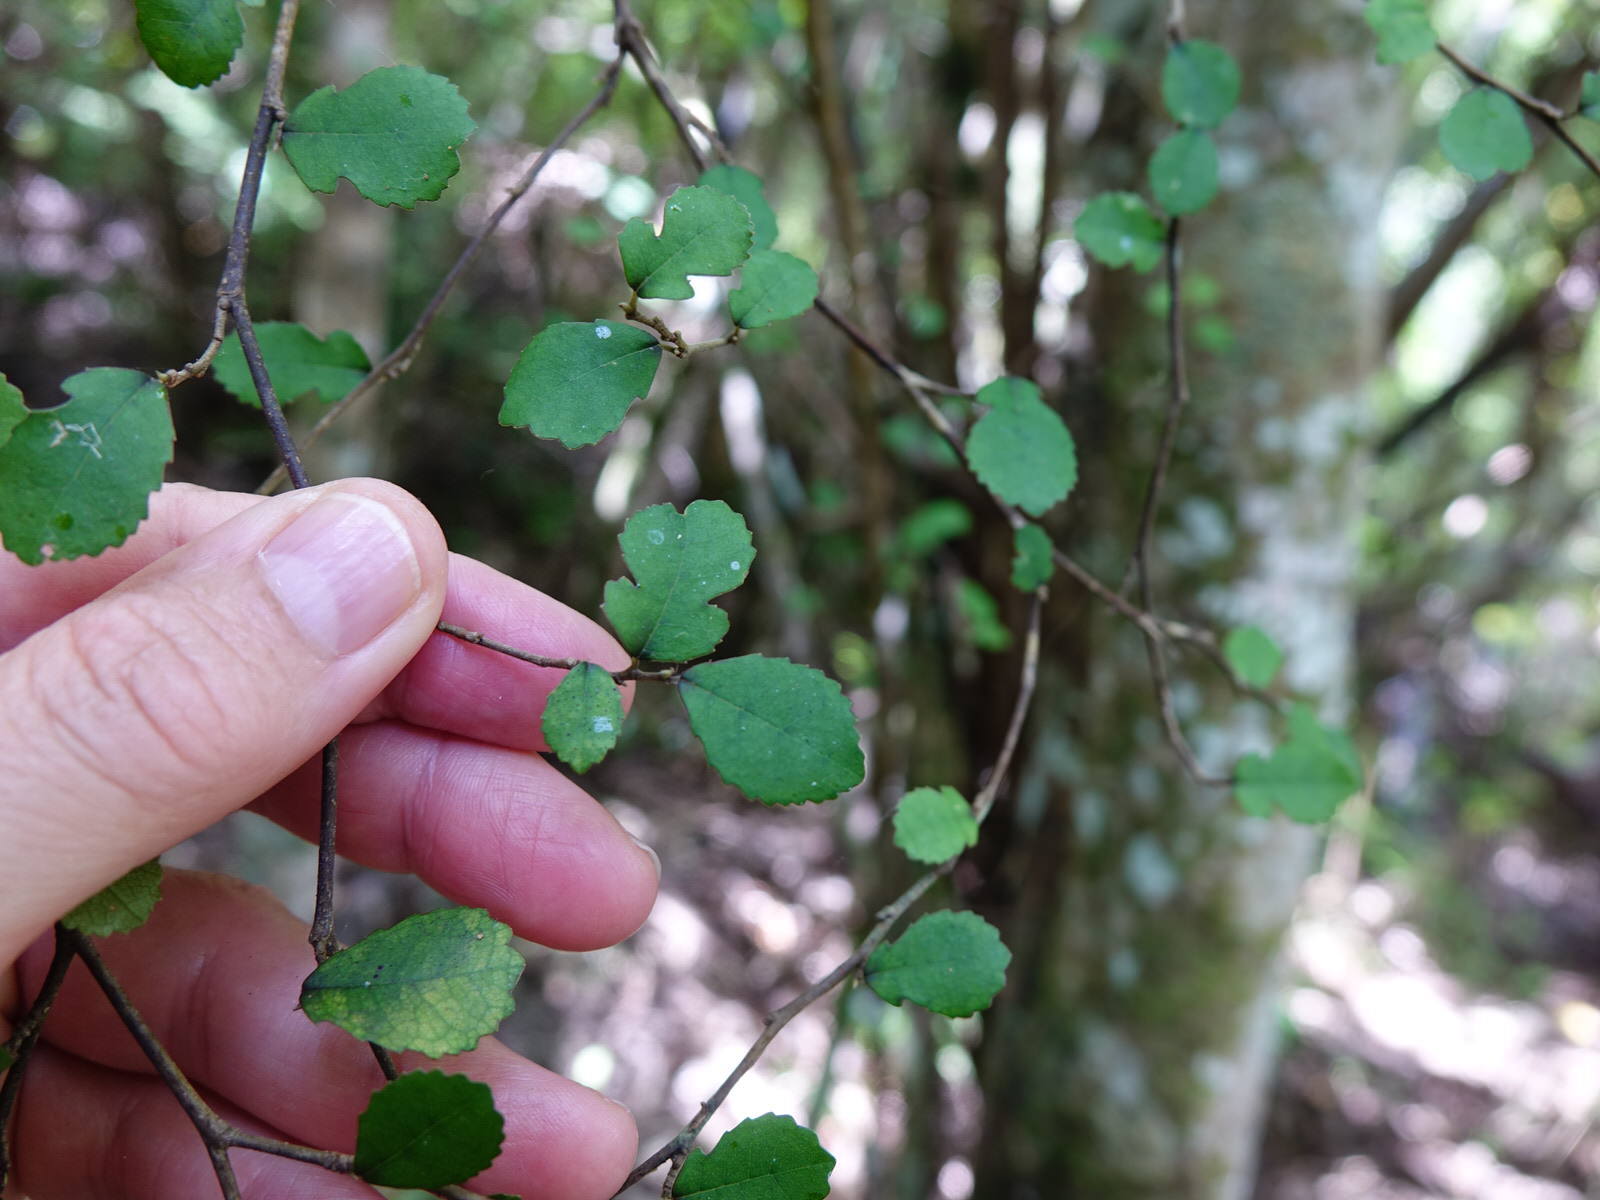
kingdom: Plantae
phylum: Tracheophyta
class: Magnoliopsida
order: Rosales
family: Moraceae
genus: Paratrophis
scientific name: Paratrophis microphylla
